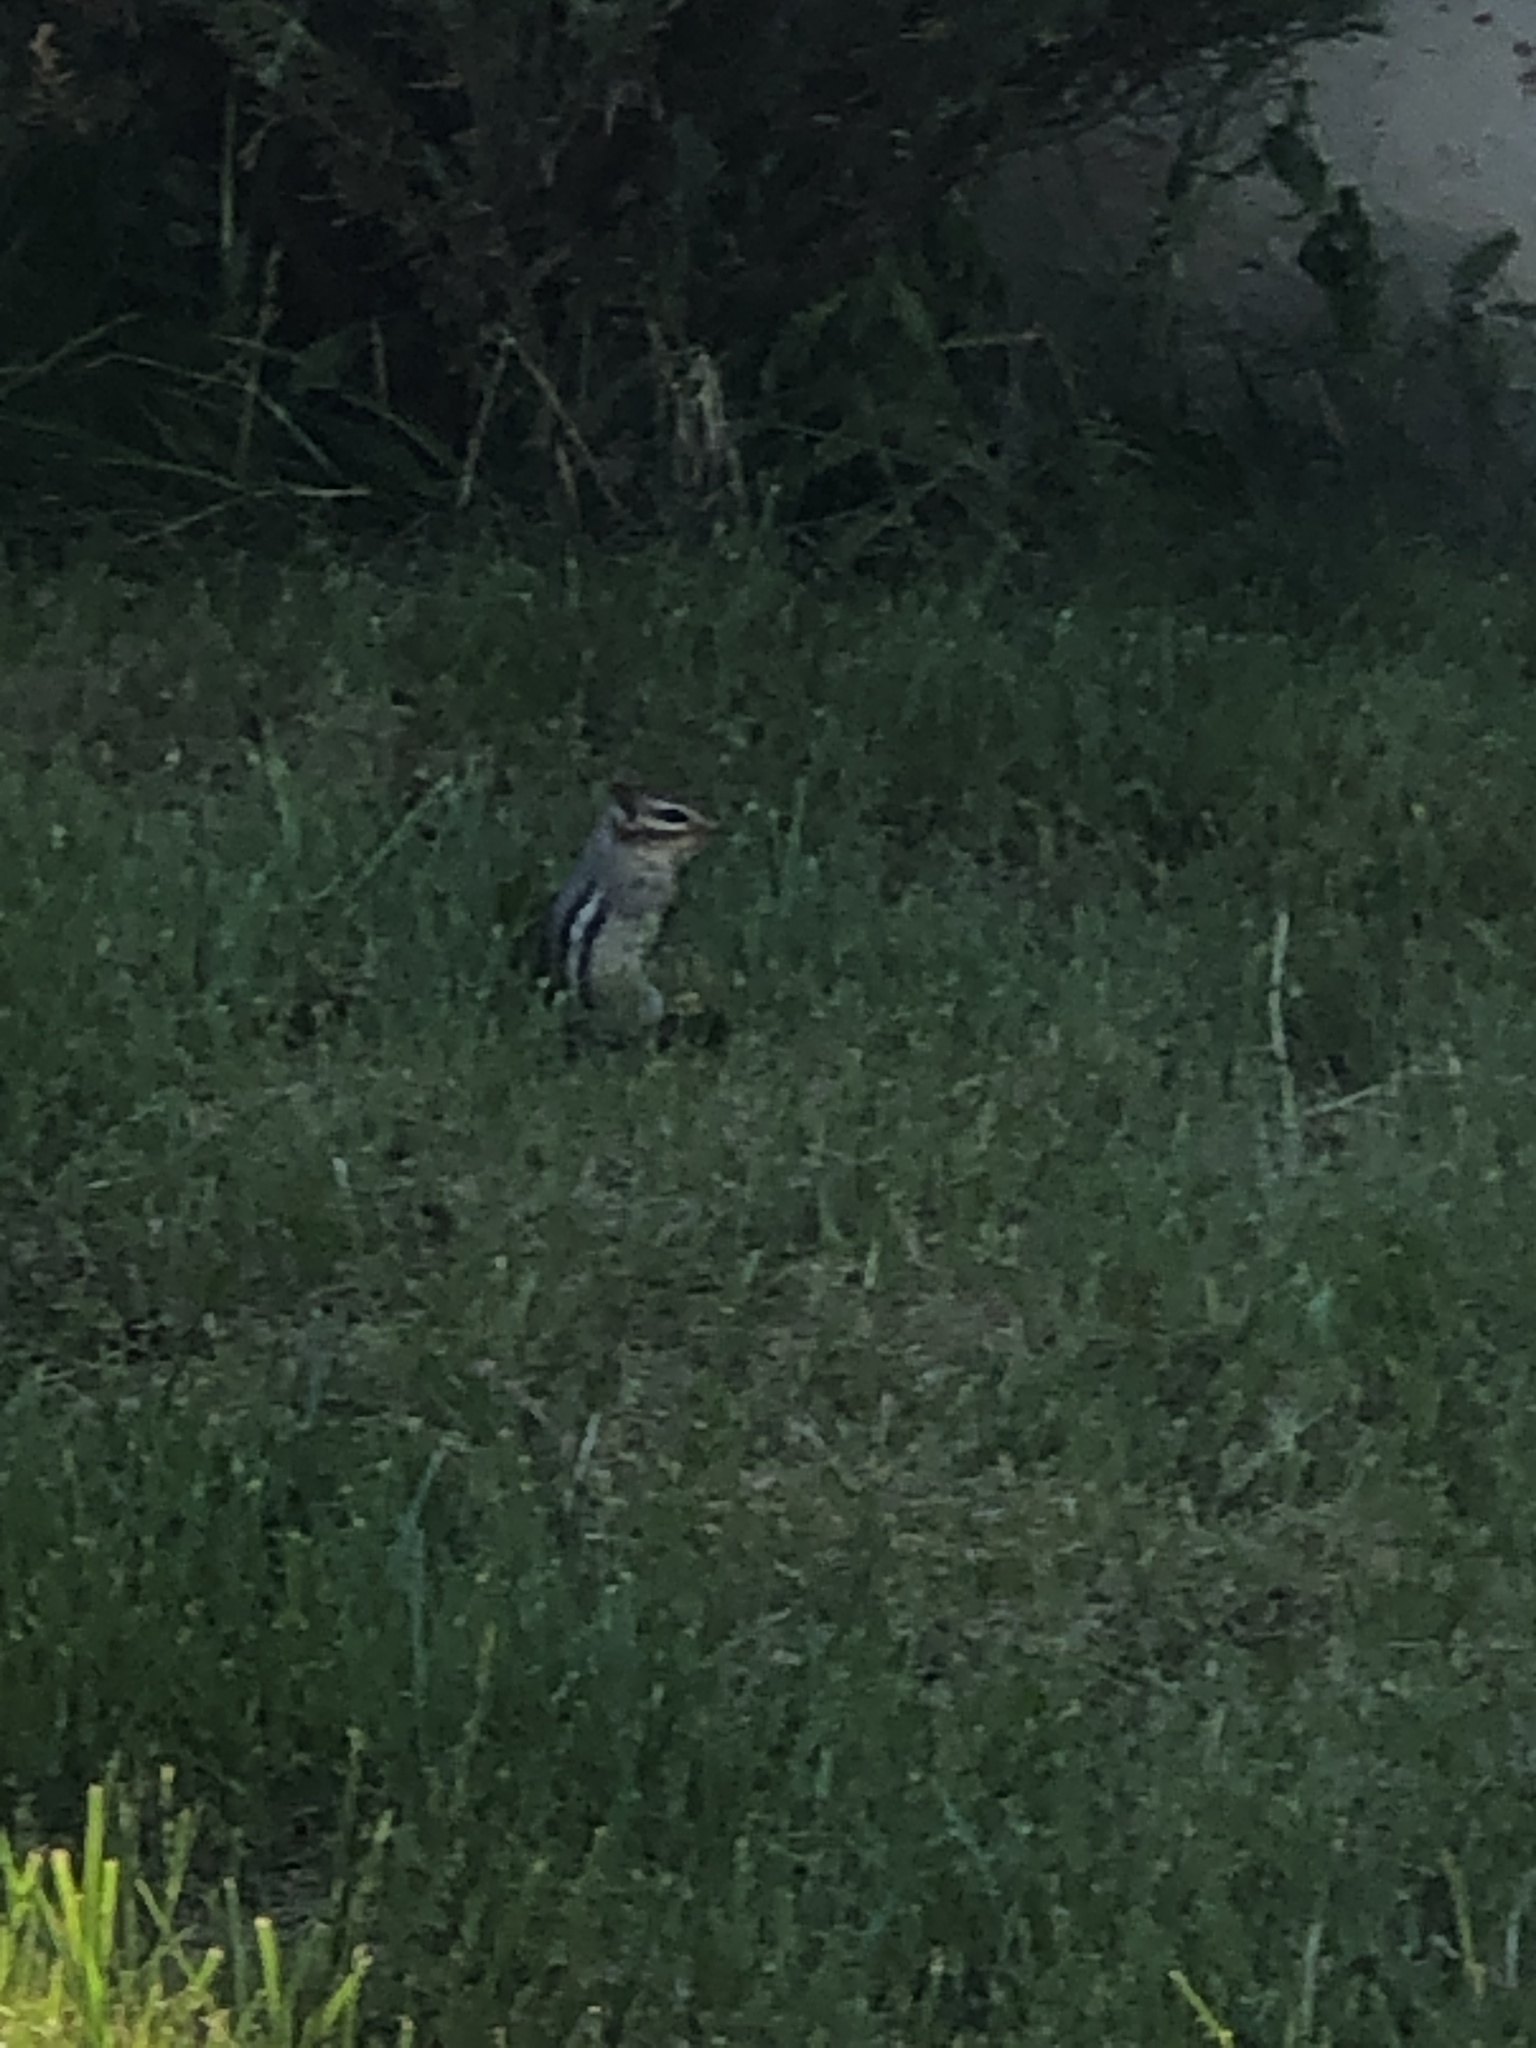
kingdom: Animalia
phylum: Chordata
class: Mammalia
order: Rodentia
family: Sciuridae
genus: Tamias
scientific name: Tamias striatus
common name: Eastern chipmunk
